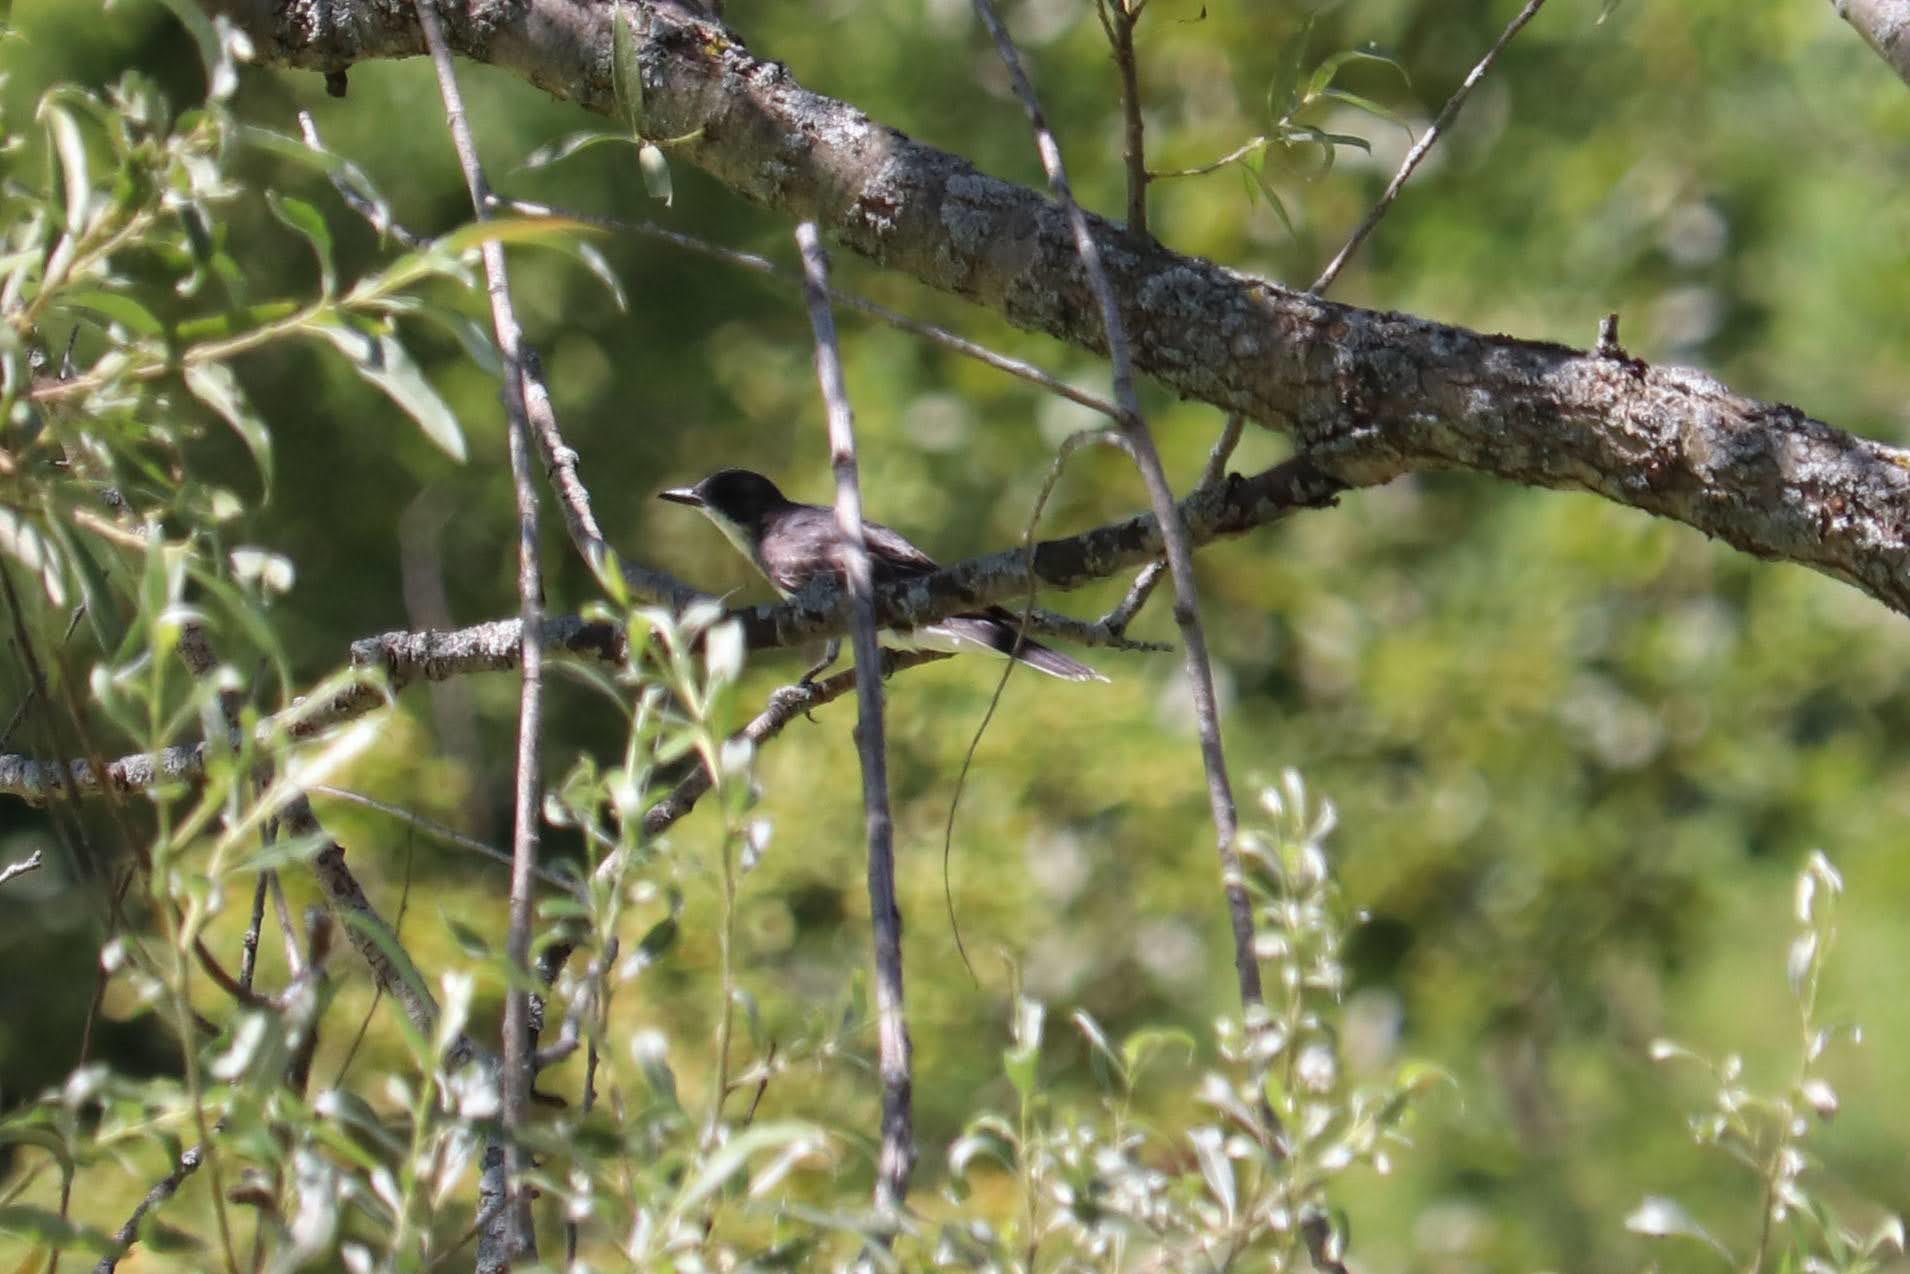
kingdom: Animalia
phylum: Chordata
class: Aves
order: Passeriformes
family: Tyrannidae
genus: Tyrannus
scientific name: Tyrannus tyrannus
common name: Eastern kingbird
